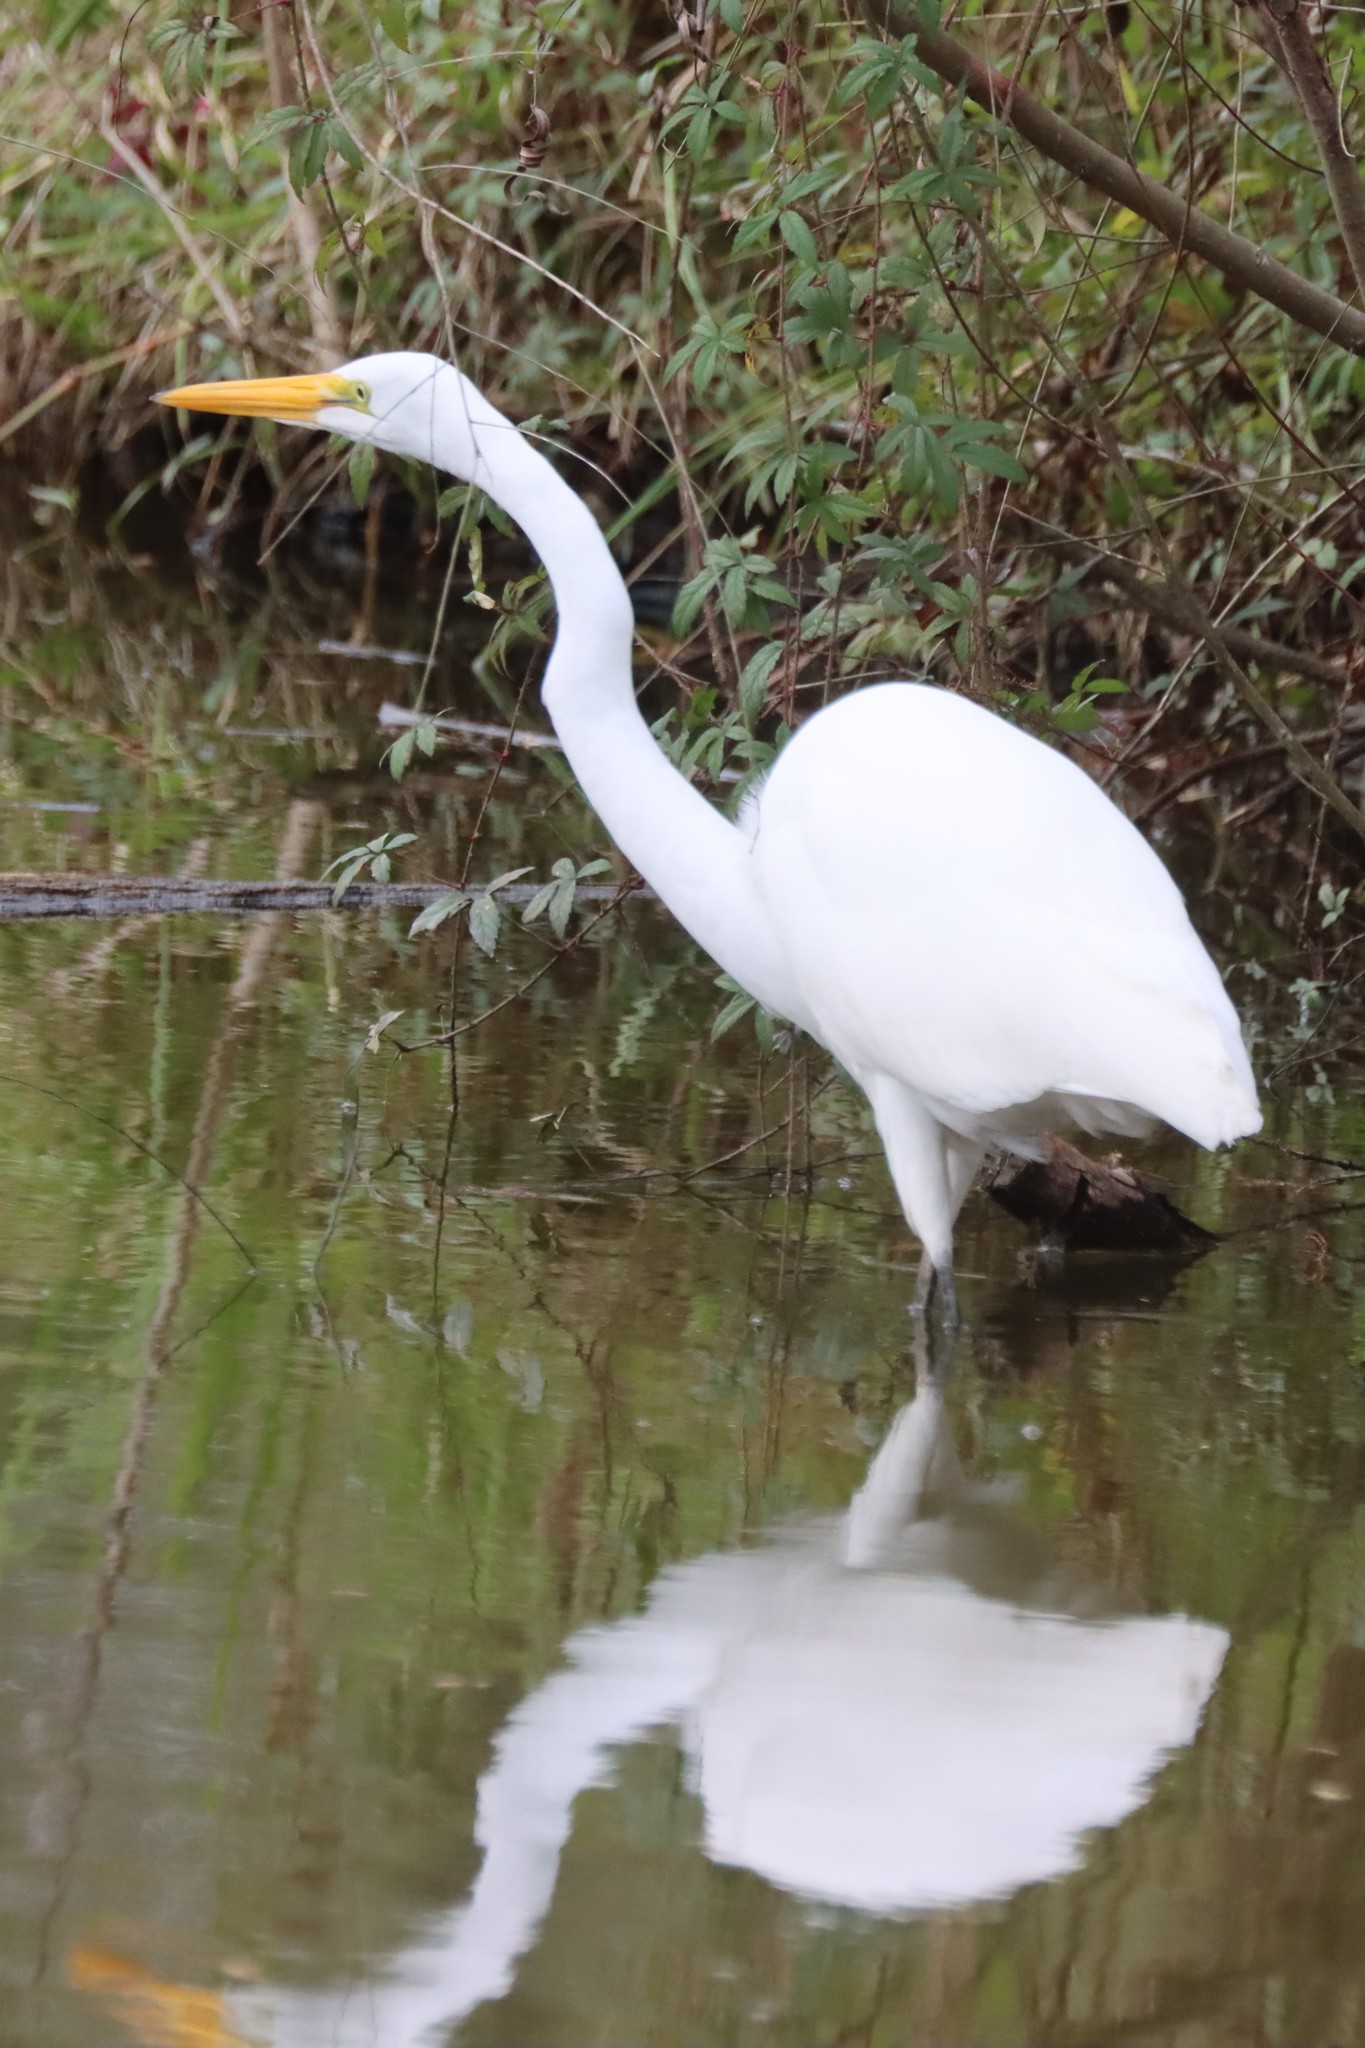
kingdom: Animalia
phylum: Chordata
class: Aves
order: Pelecaniformes
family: Ardeidae
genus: Ardea
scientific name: Ardea alba
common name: Great egret
